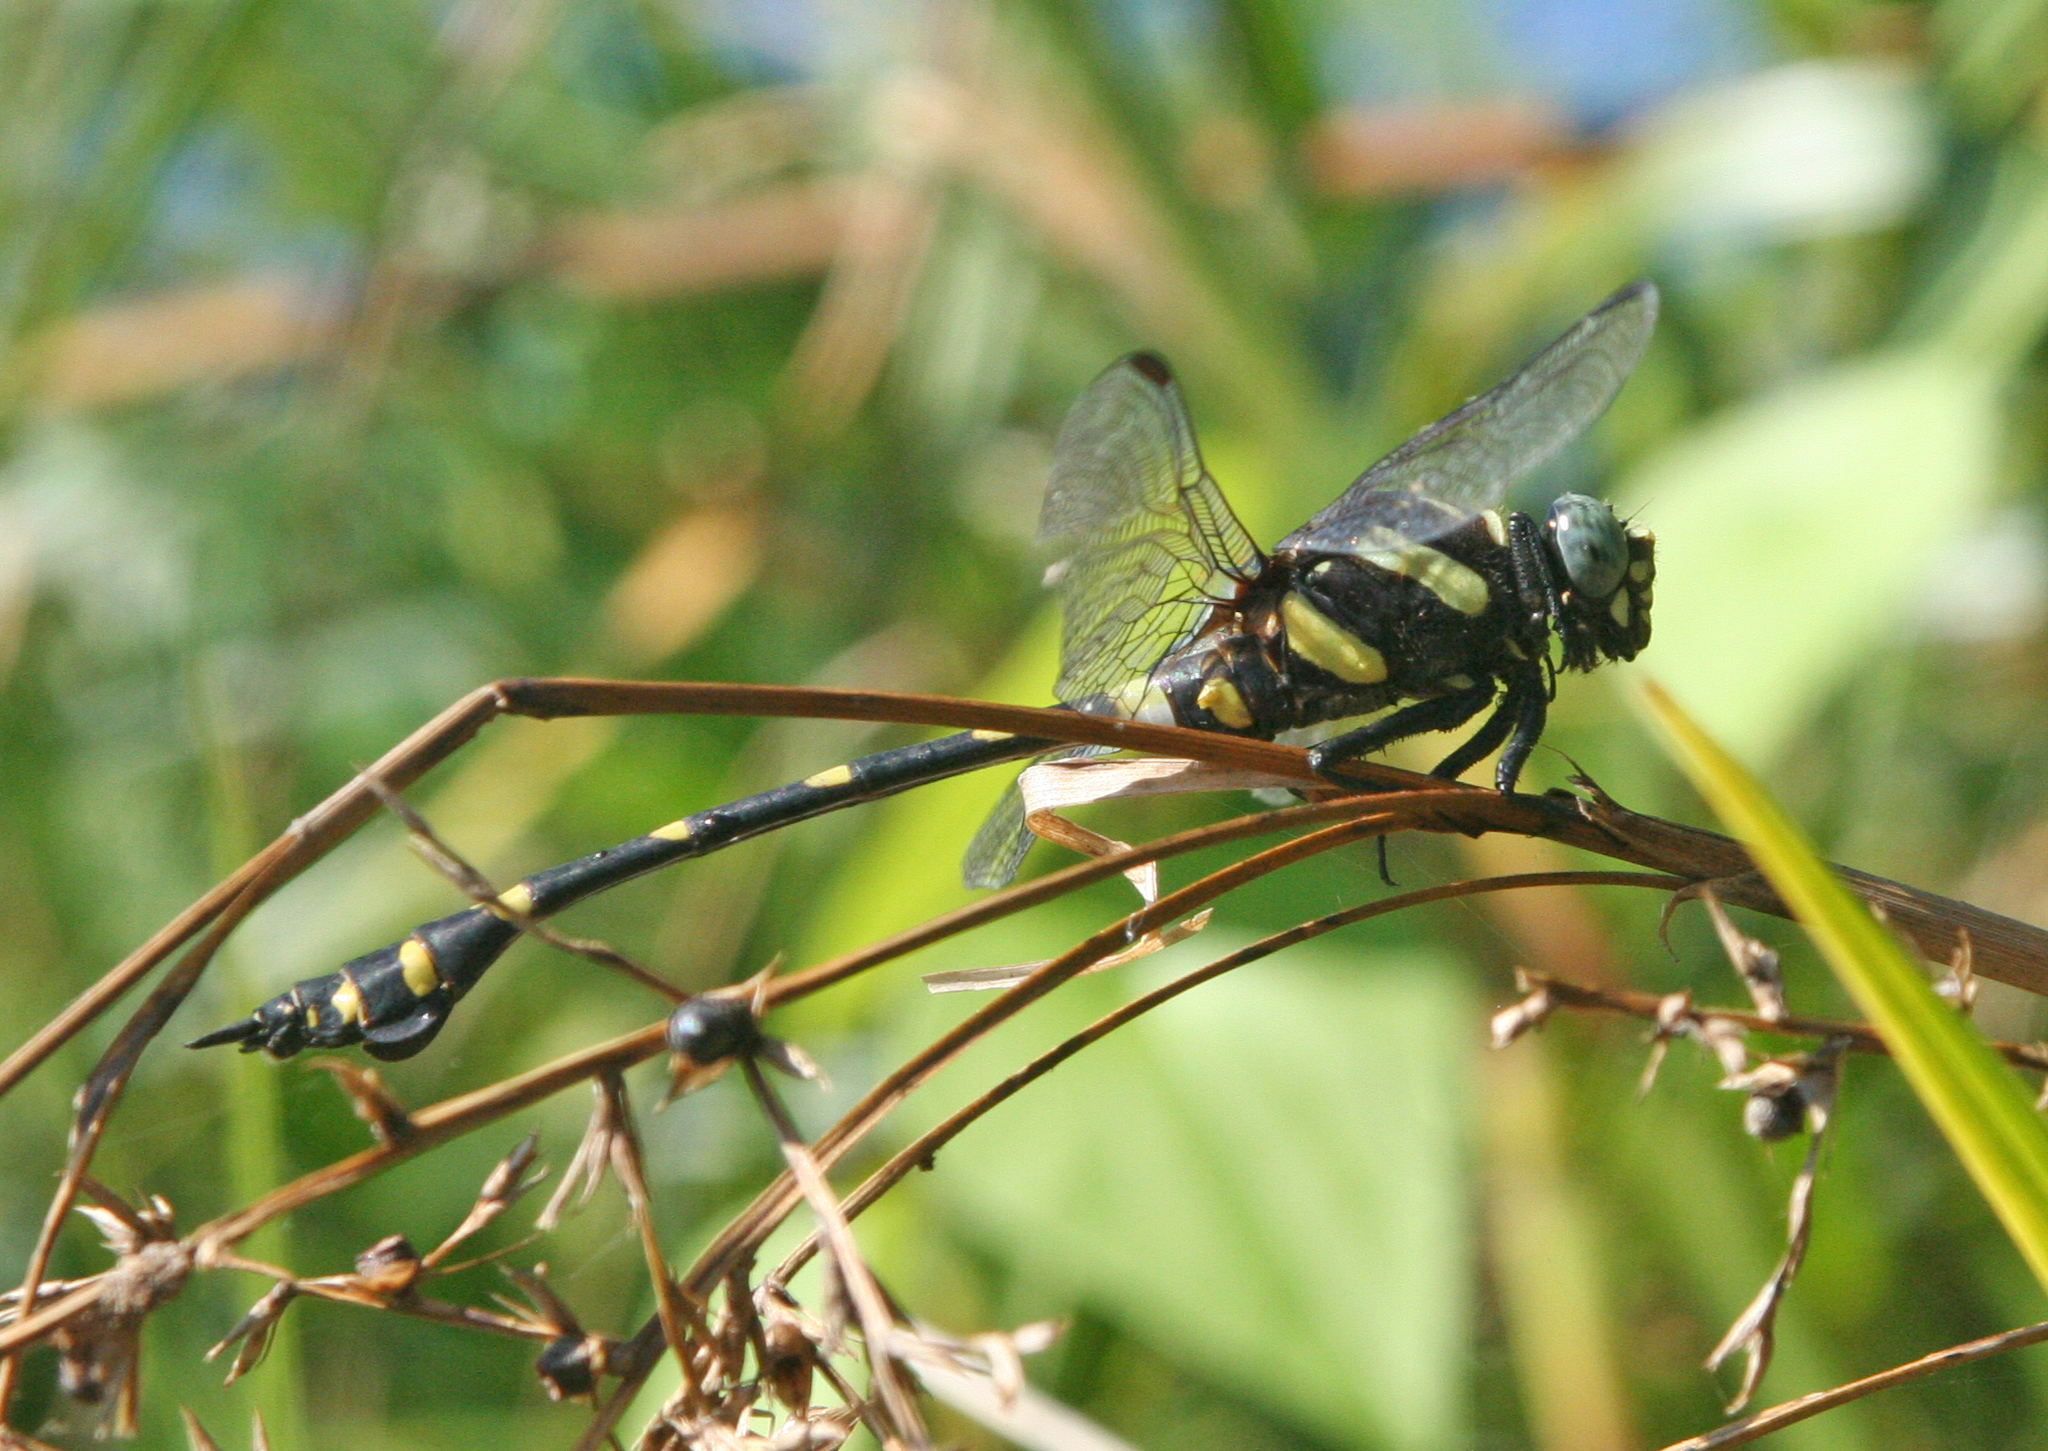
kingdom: Animalia
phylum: Arthropoda
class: Insecta
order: Odonata
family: Gomphidae
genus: Ictinogomphus
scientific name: Ictinogomphus decoratus
